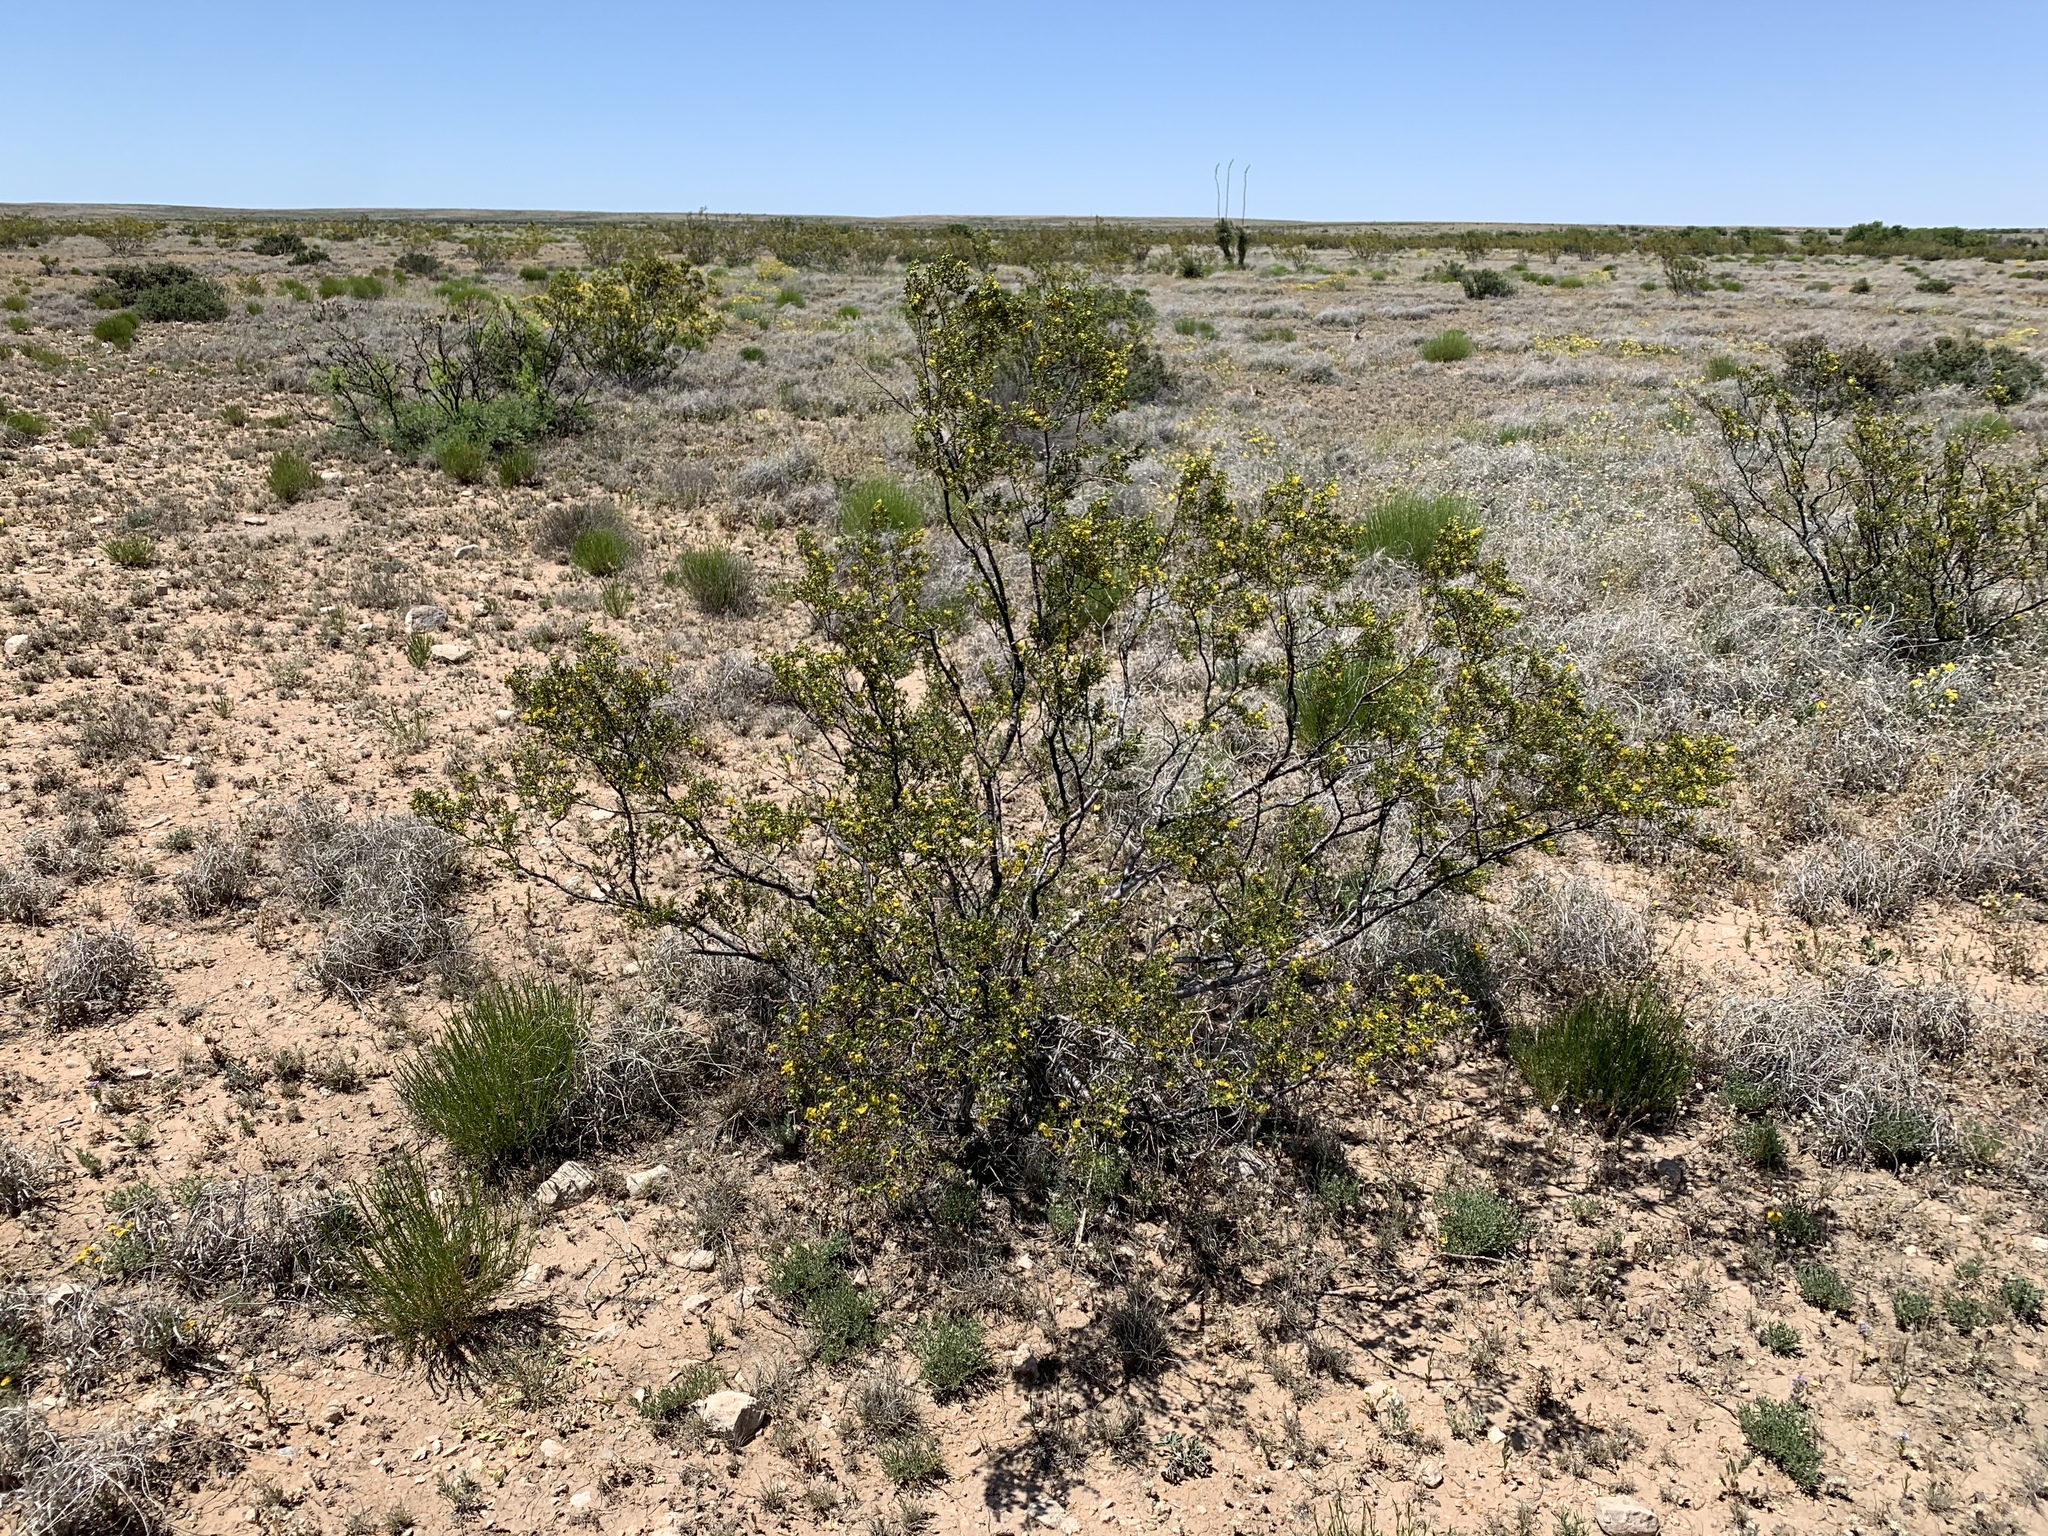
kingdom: Plantae
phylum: Tracheophyta
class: Magnoliopsida
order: Zygophyllales
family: Zygophyllaceae
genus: Larrea
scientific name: Larrea tridentata
